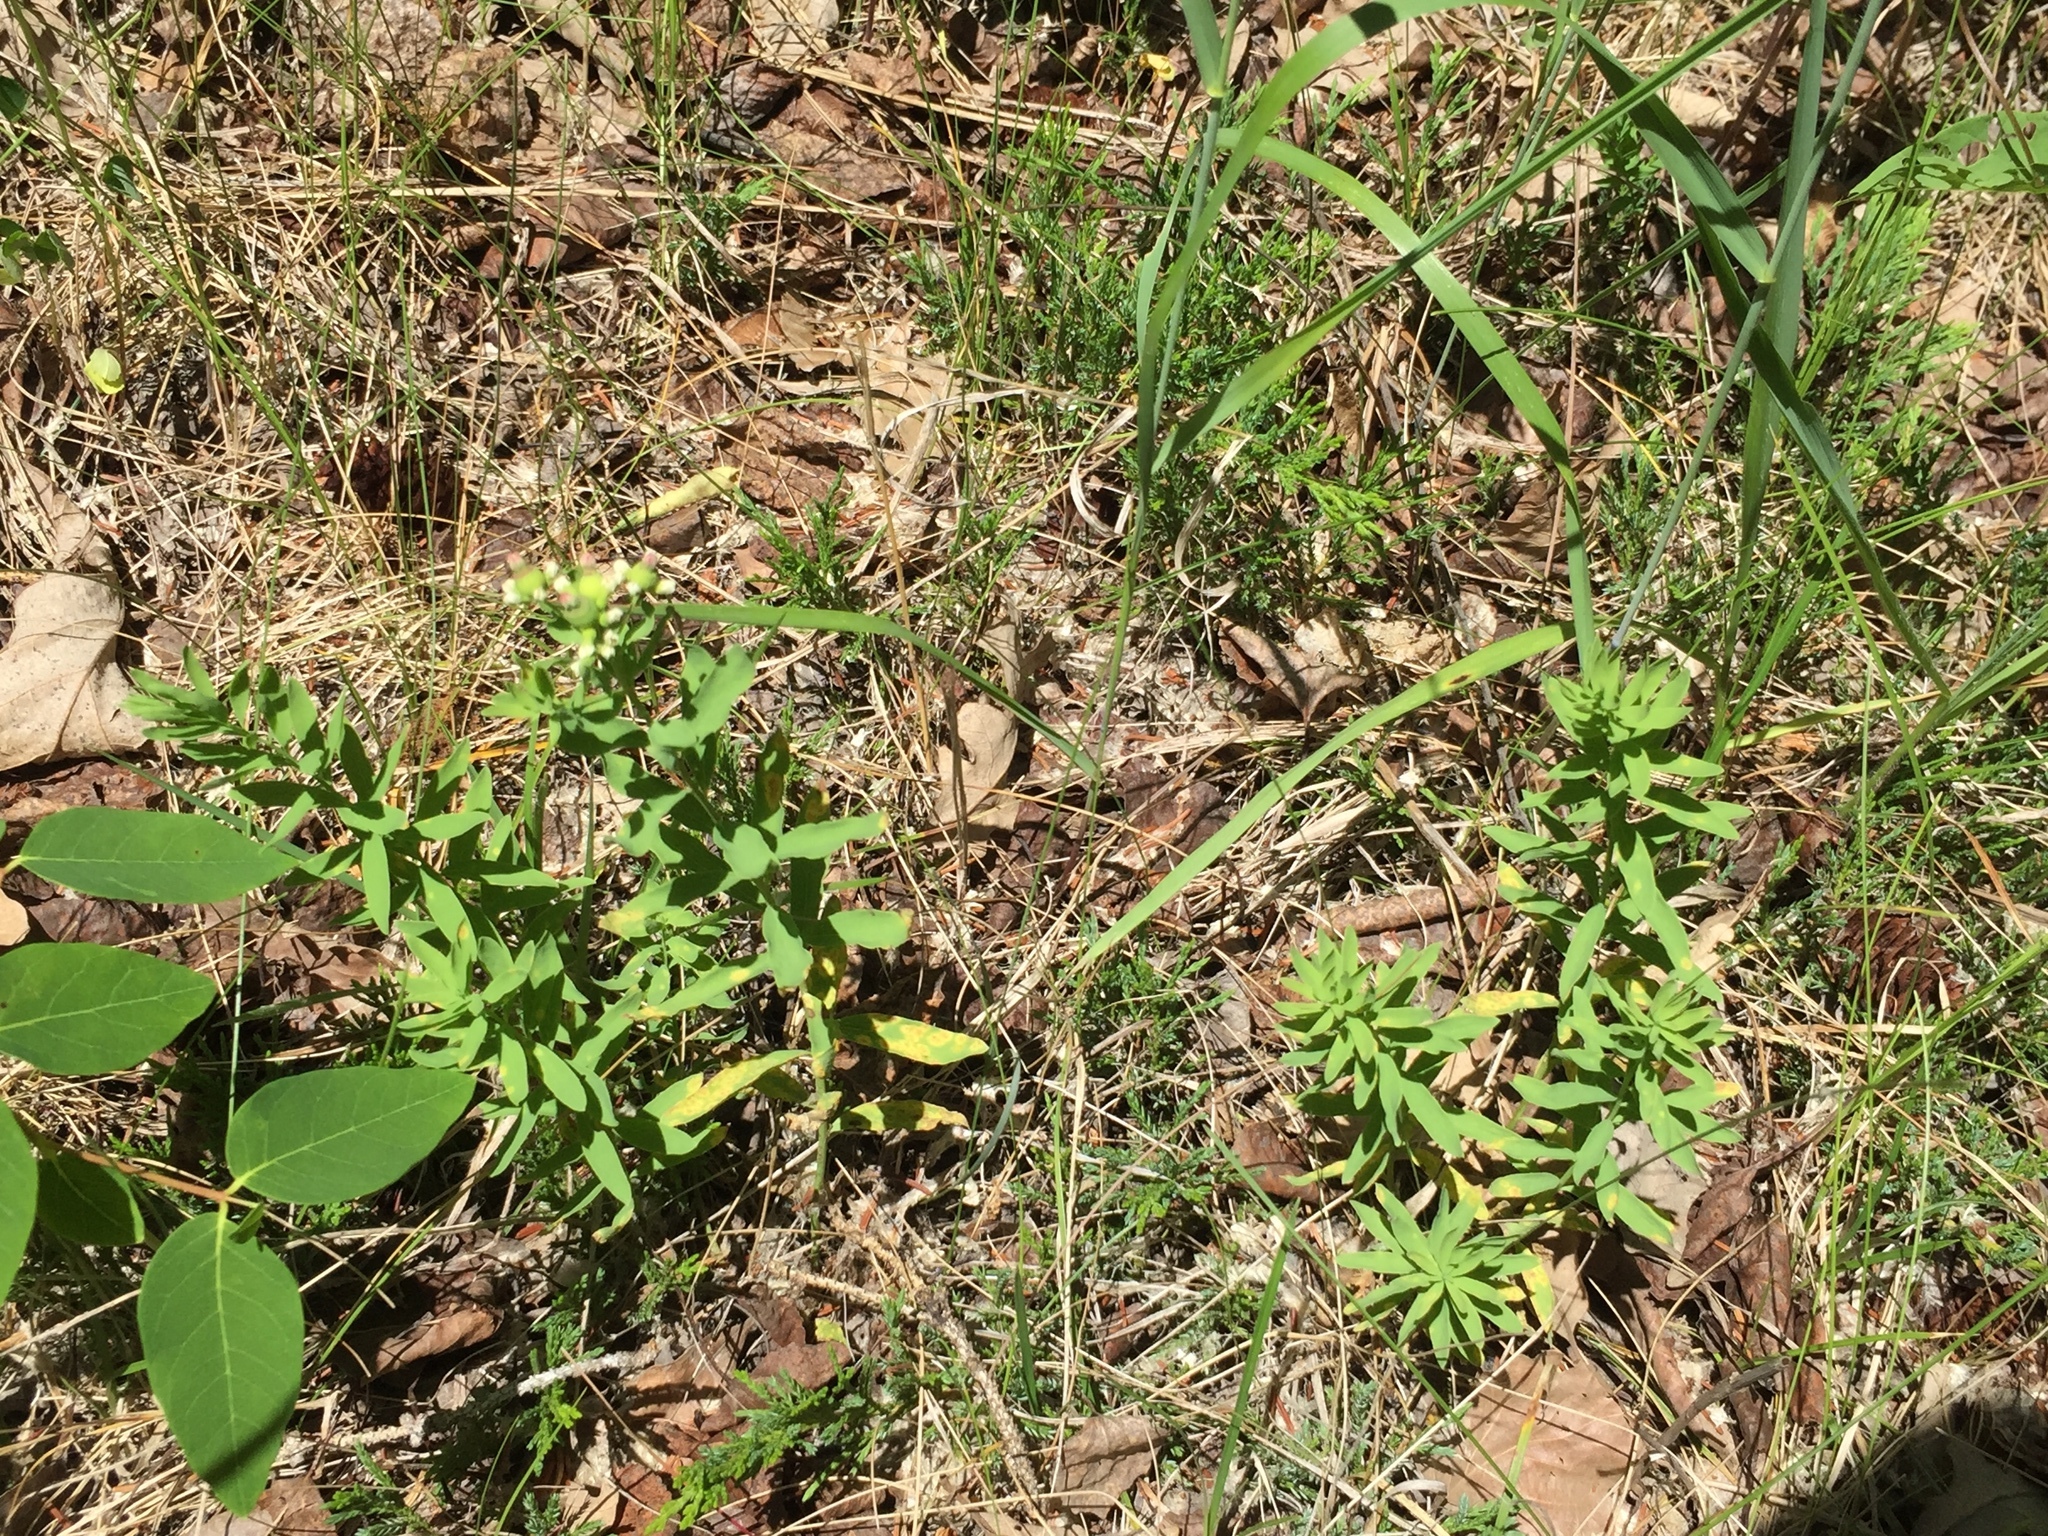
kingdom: Plantae
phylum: Tracheophyta
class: Magnoliopsida
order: Santalales
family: Comandraceae
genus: Comandra
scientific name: Comandra umbellata
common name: Bastard toadflax
